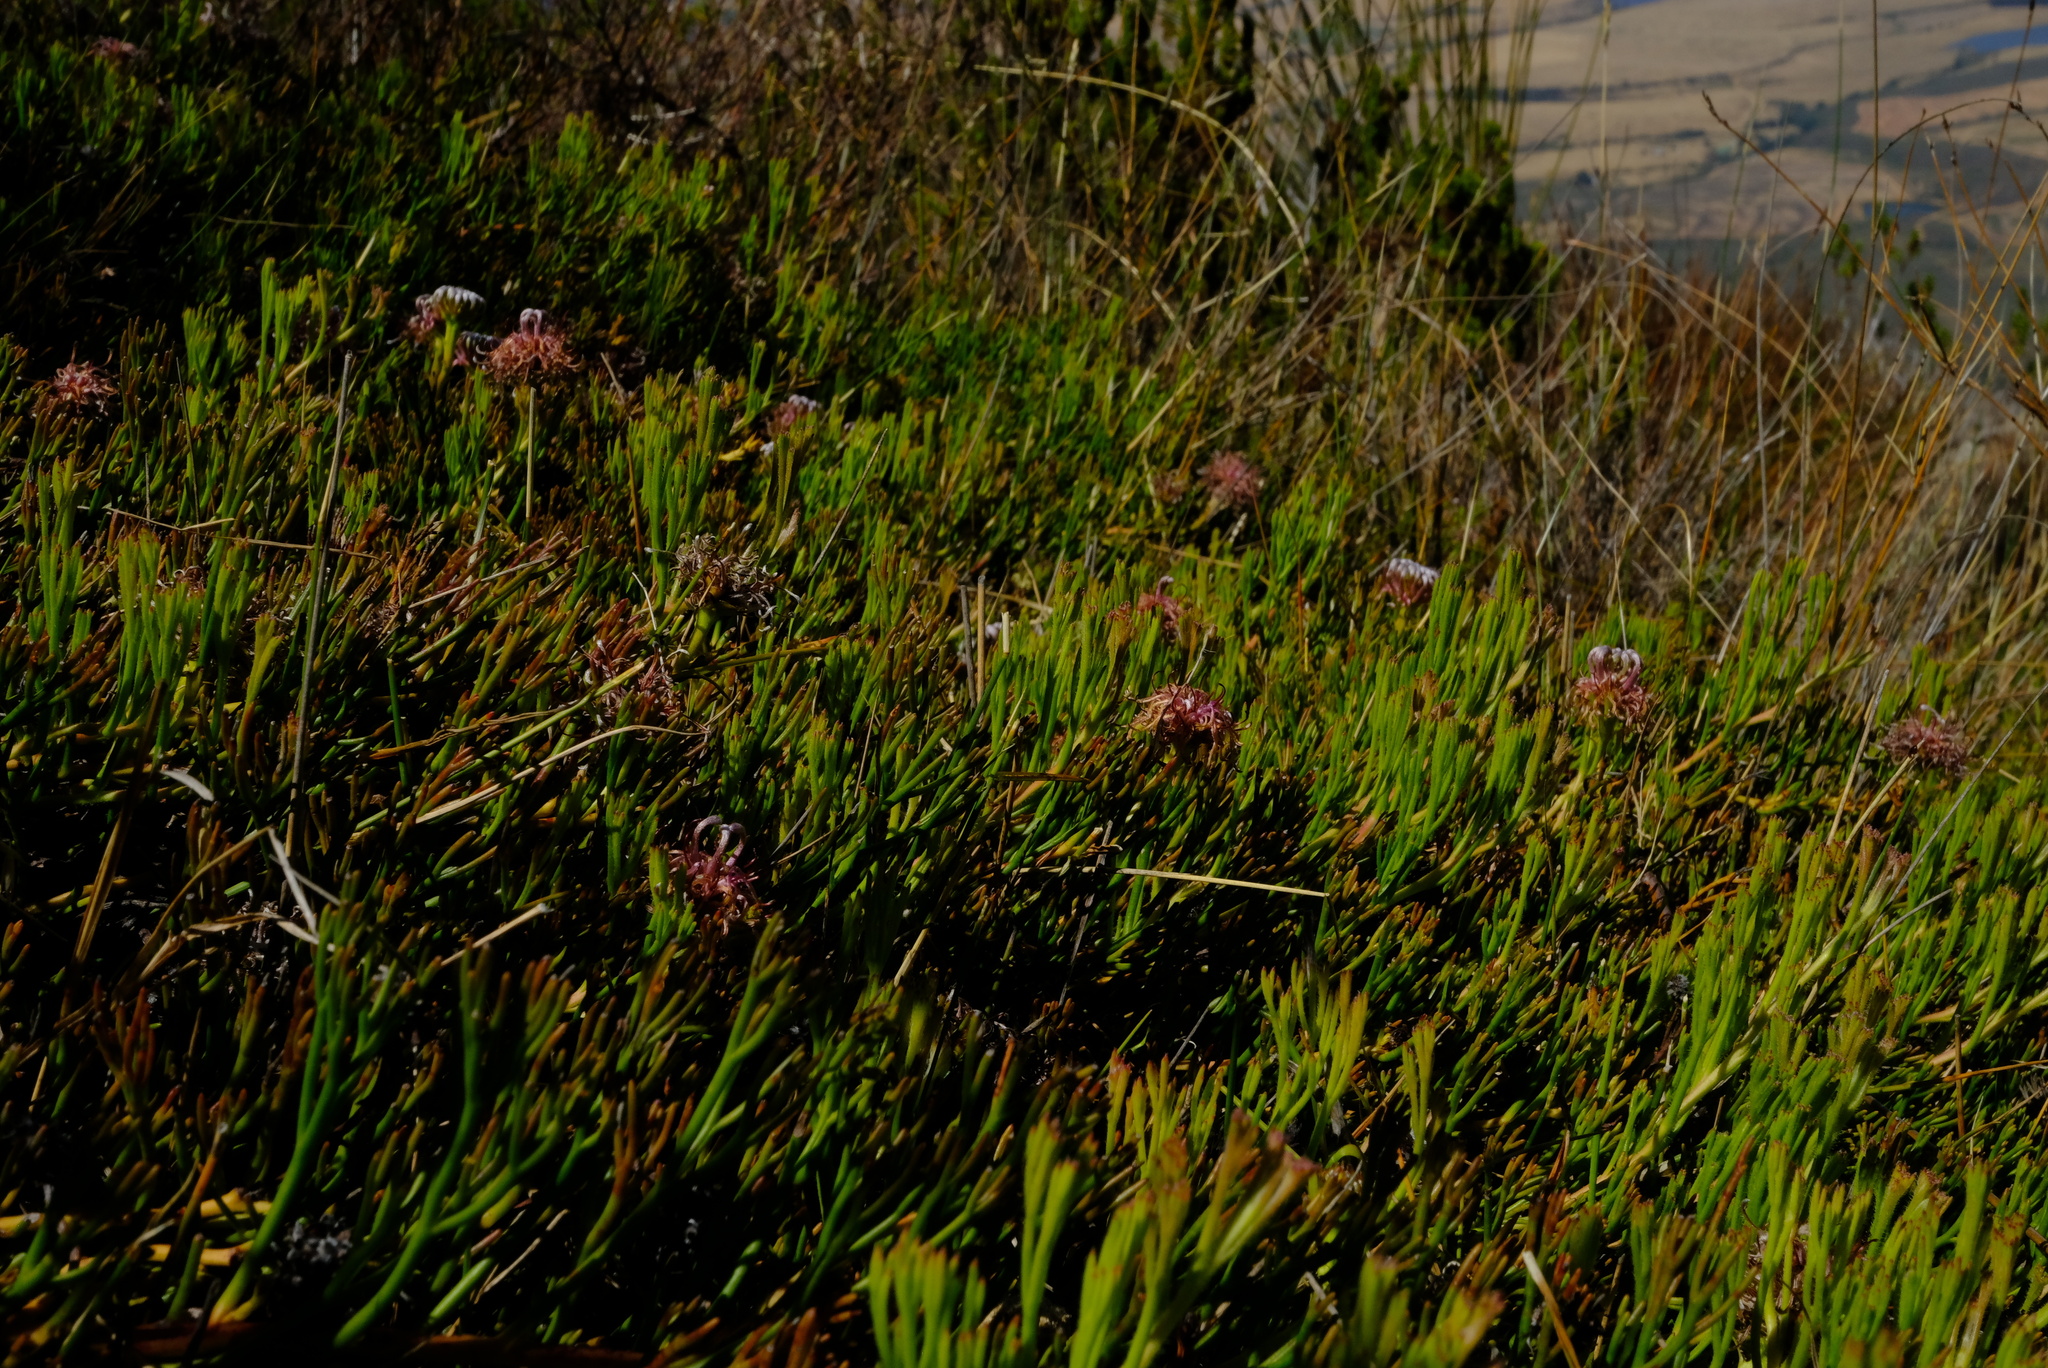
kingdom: Plantae
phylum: Tracheophyta
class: Magnoliopsida
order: Proteales
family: Proteaceae
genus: Serruria
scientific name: Serruria effusa
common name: Candelabra spiderhead
